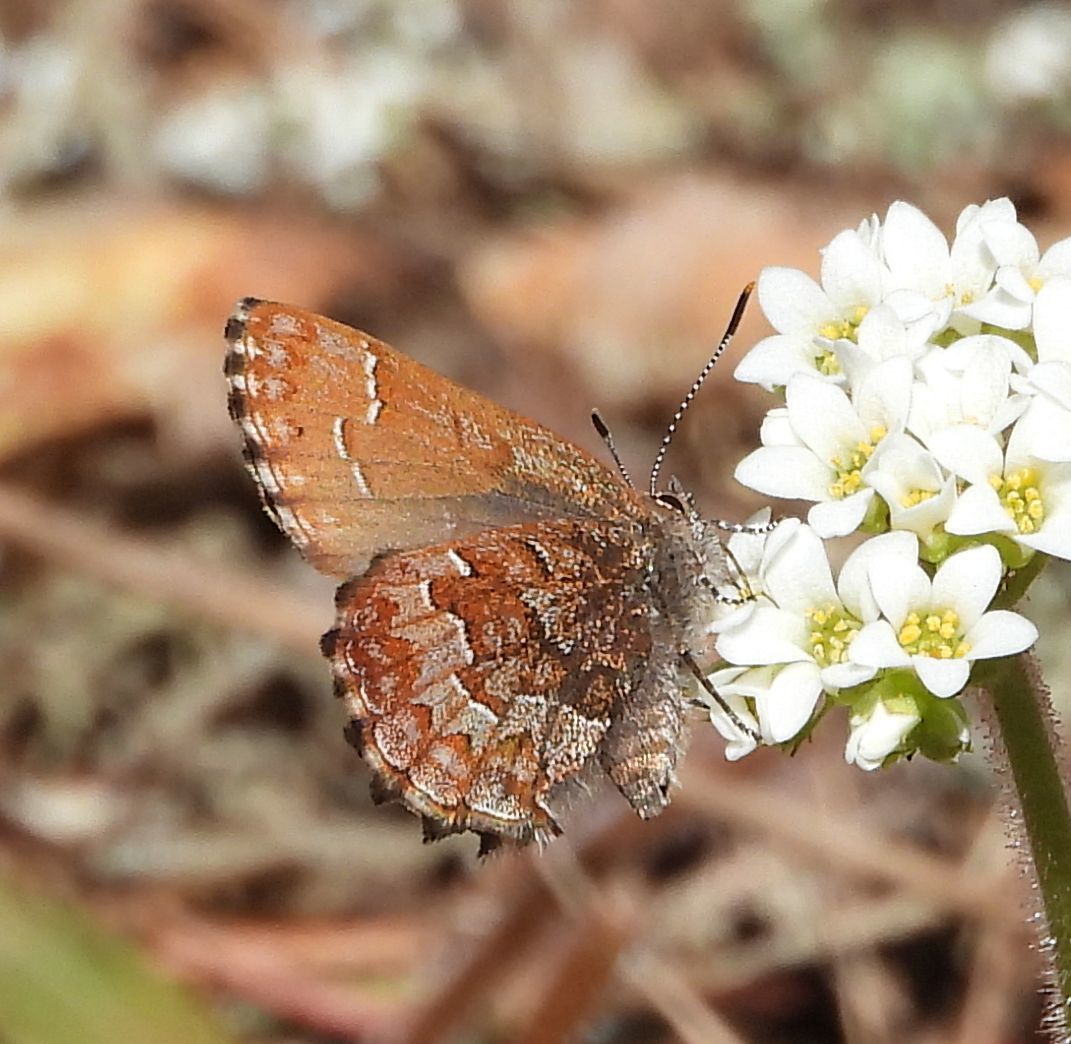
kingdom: Animalia
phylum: Arthropoda
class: Insecta
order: Lepidoptera
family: Lycaenidae
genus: Incisalia
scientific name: Incisalia niphon
